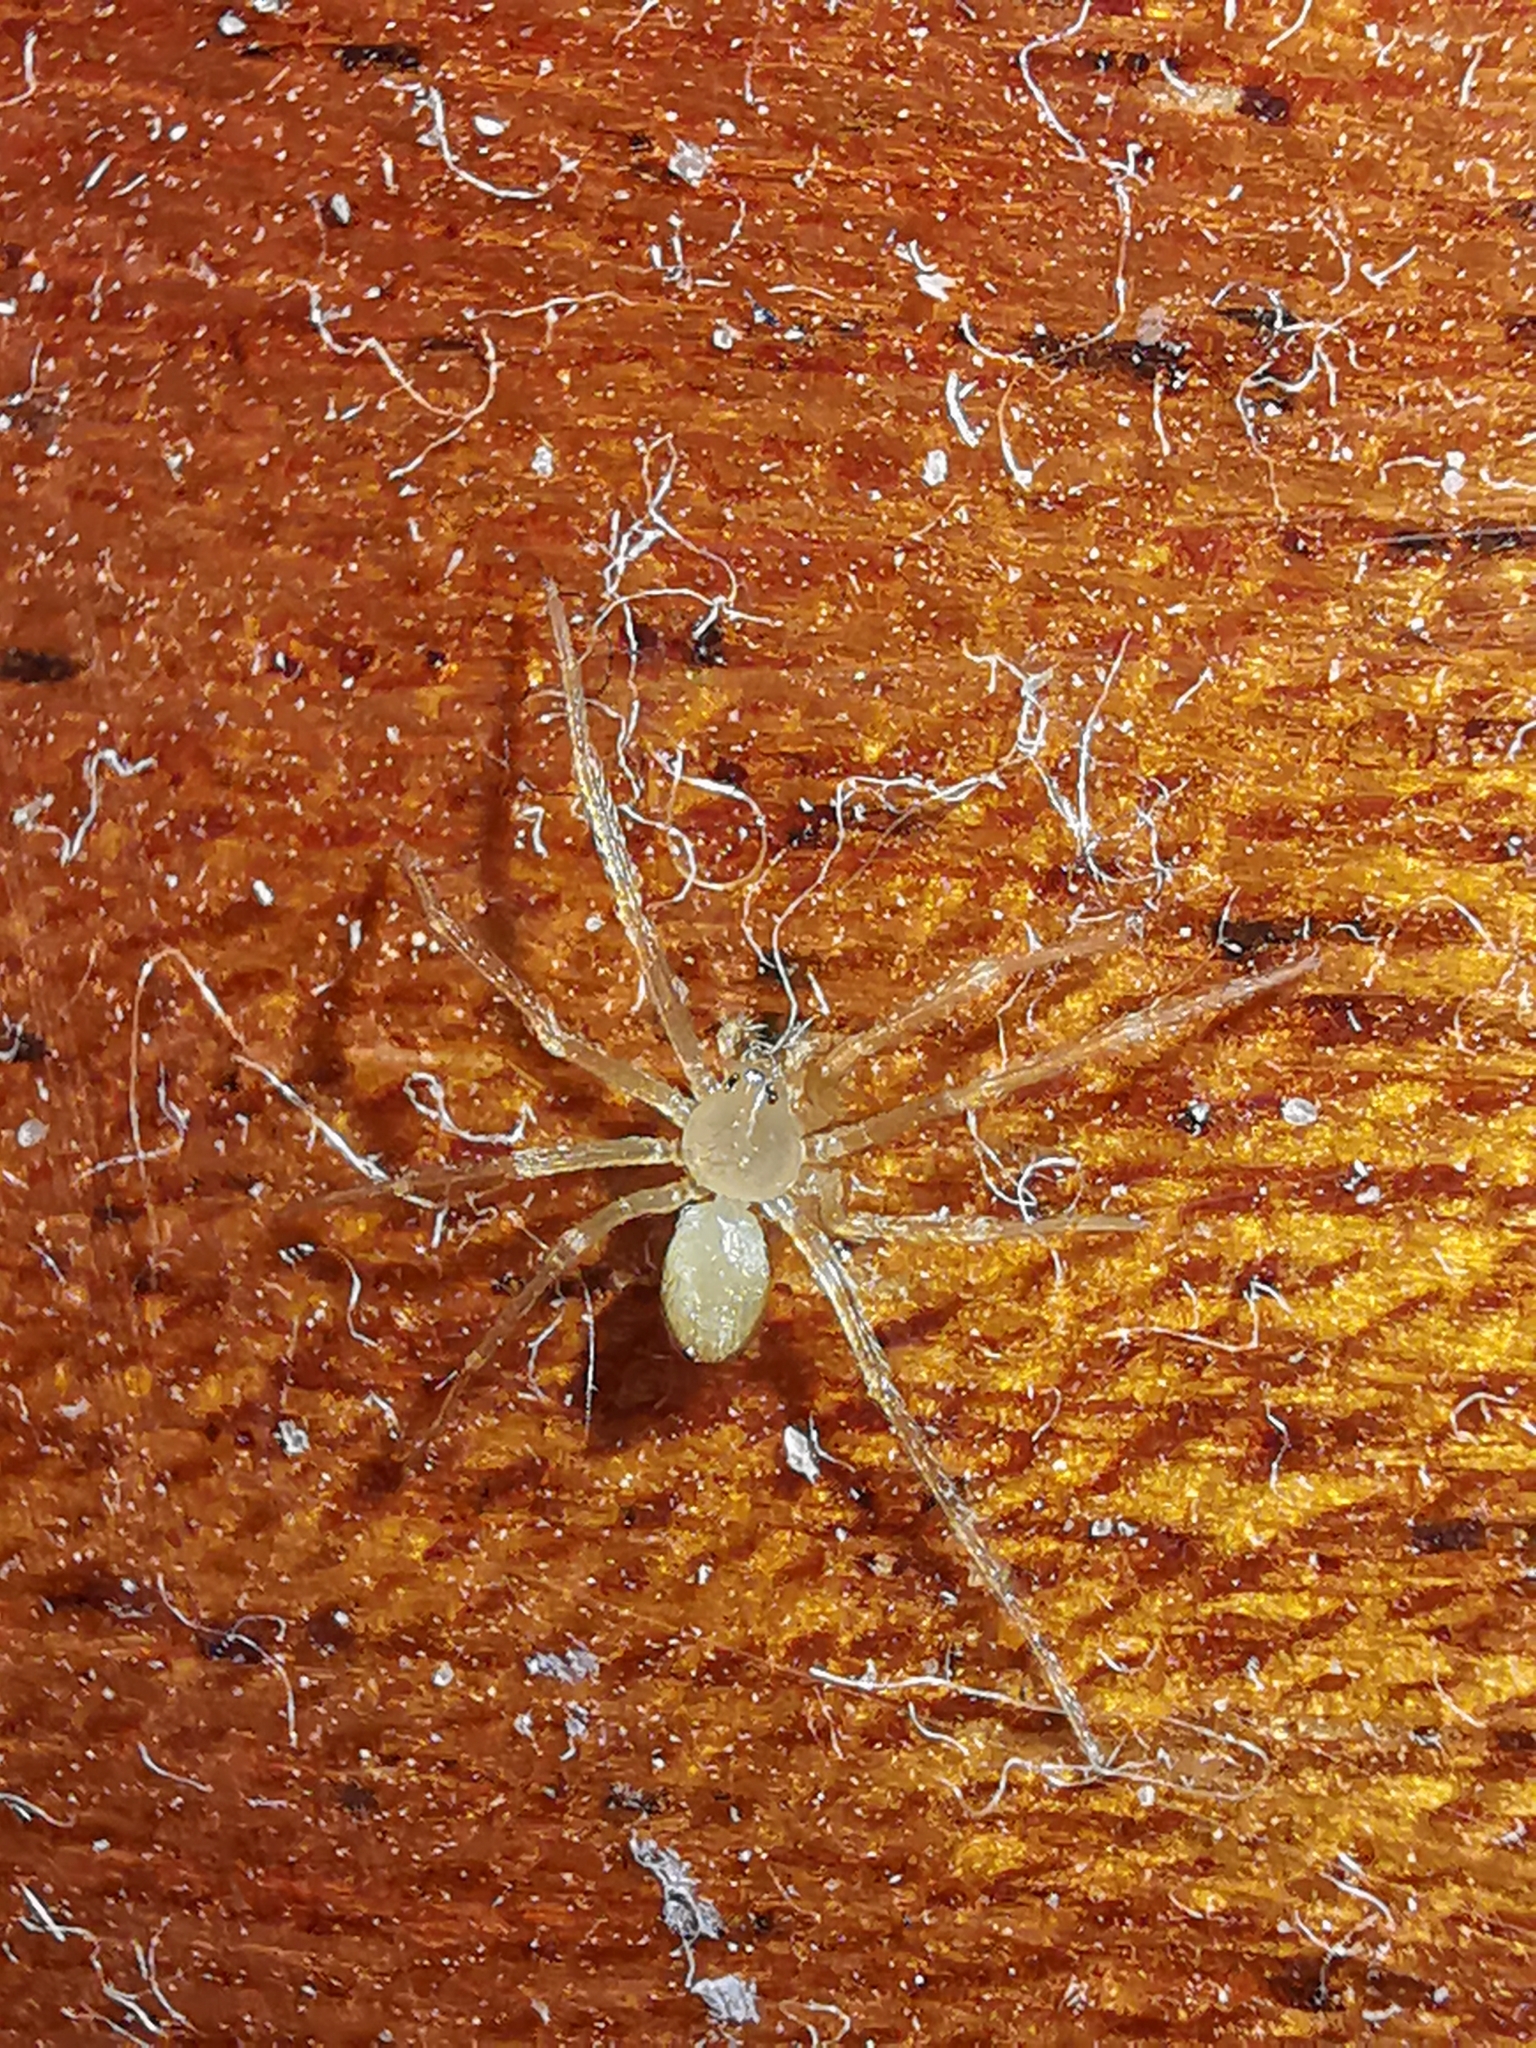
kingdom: Animalia
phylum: Arthropoda
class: Arachnida
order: Araneae
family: Sicariidae
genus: Loxosceles
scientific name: Loxosceles rufescens
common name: Mediterranean recluse spider
